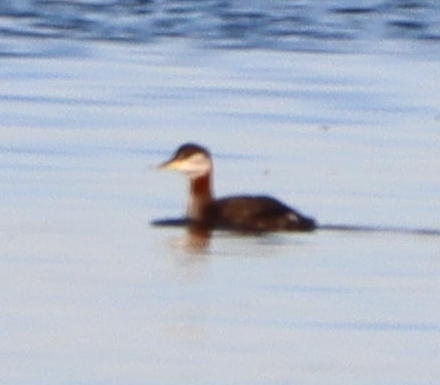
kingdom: Animalia
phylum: Chordata
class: Aves
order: Podicipediformes
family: Podicipedidae
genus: Podiceps
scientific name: Podiceps grisegena
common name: Red-necked grebe
